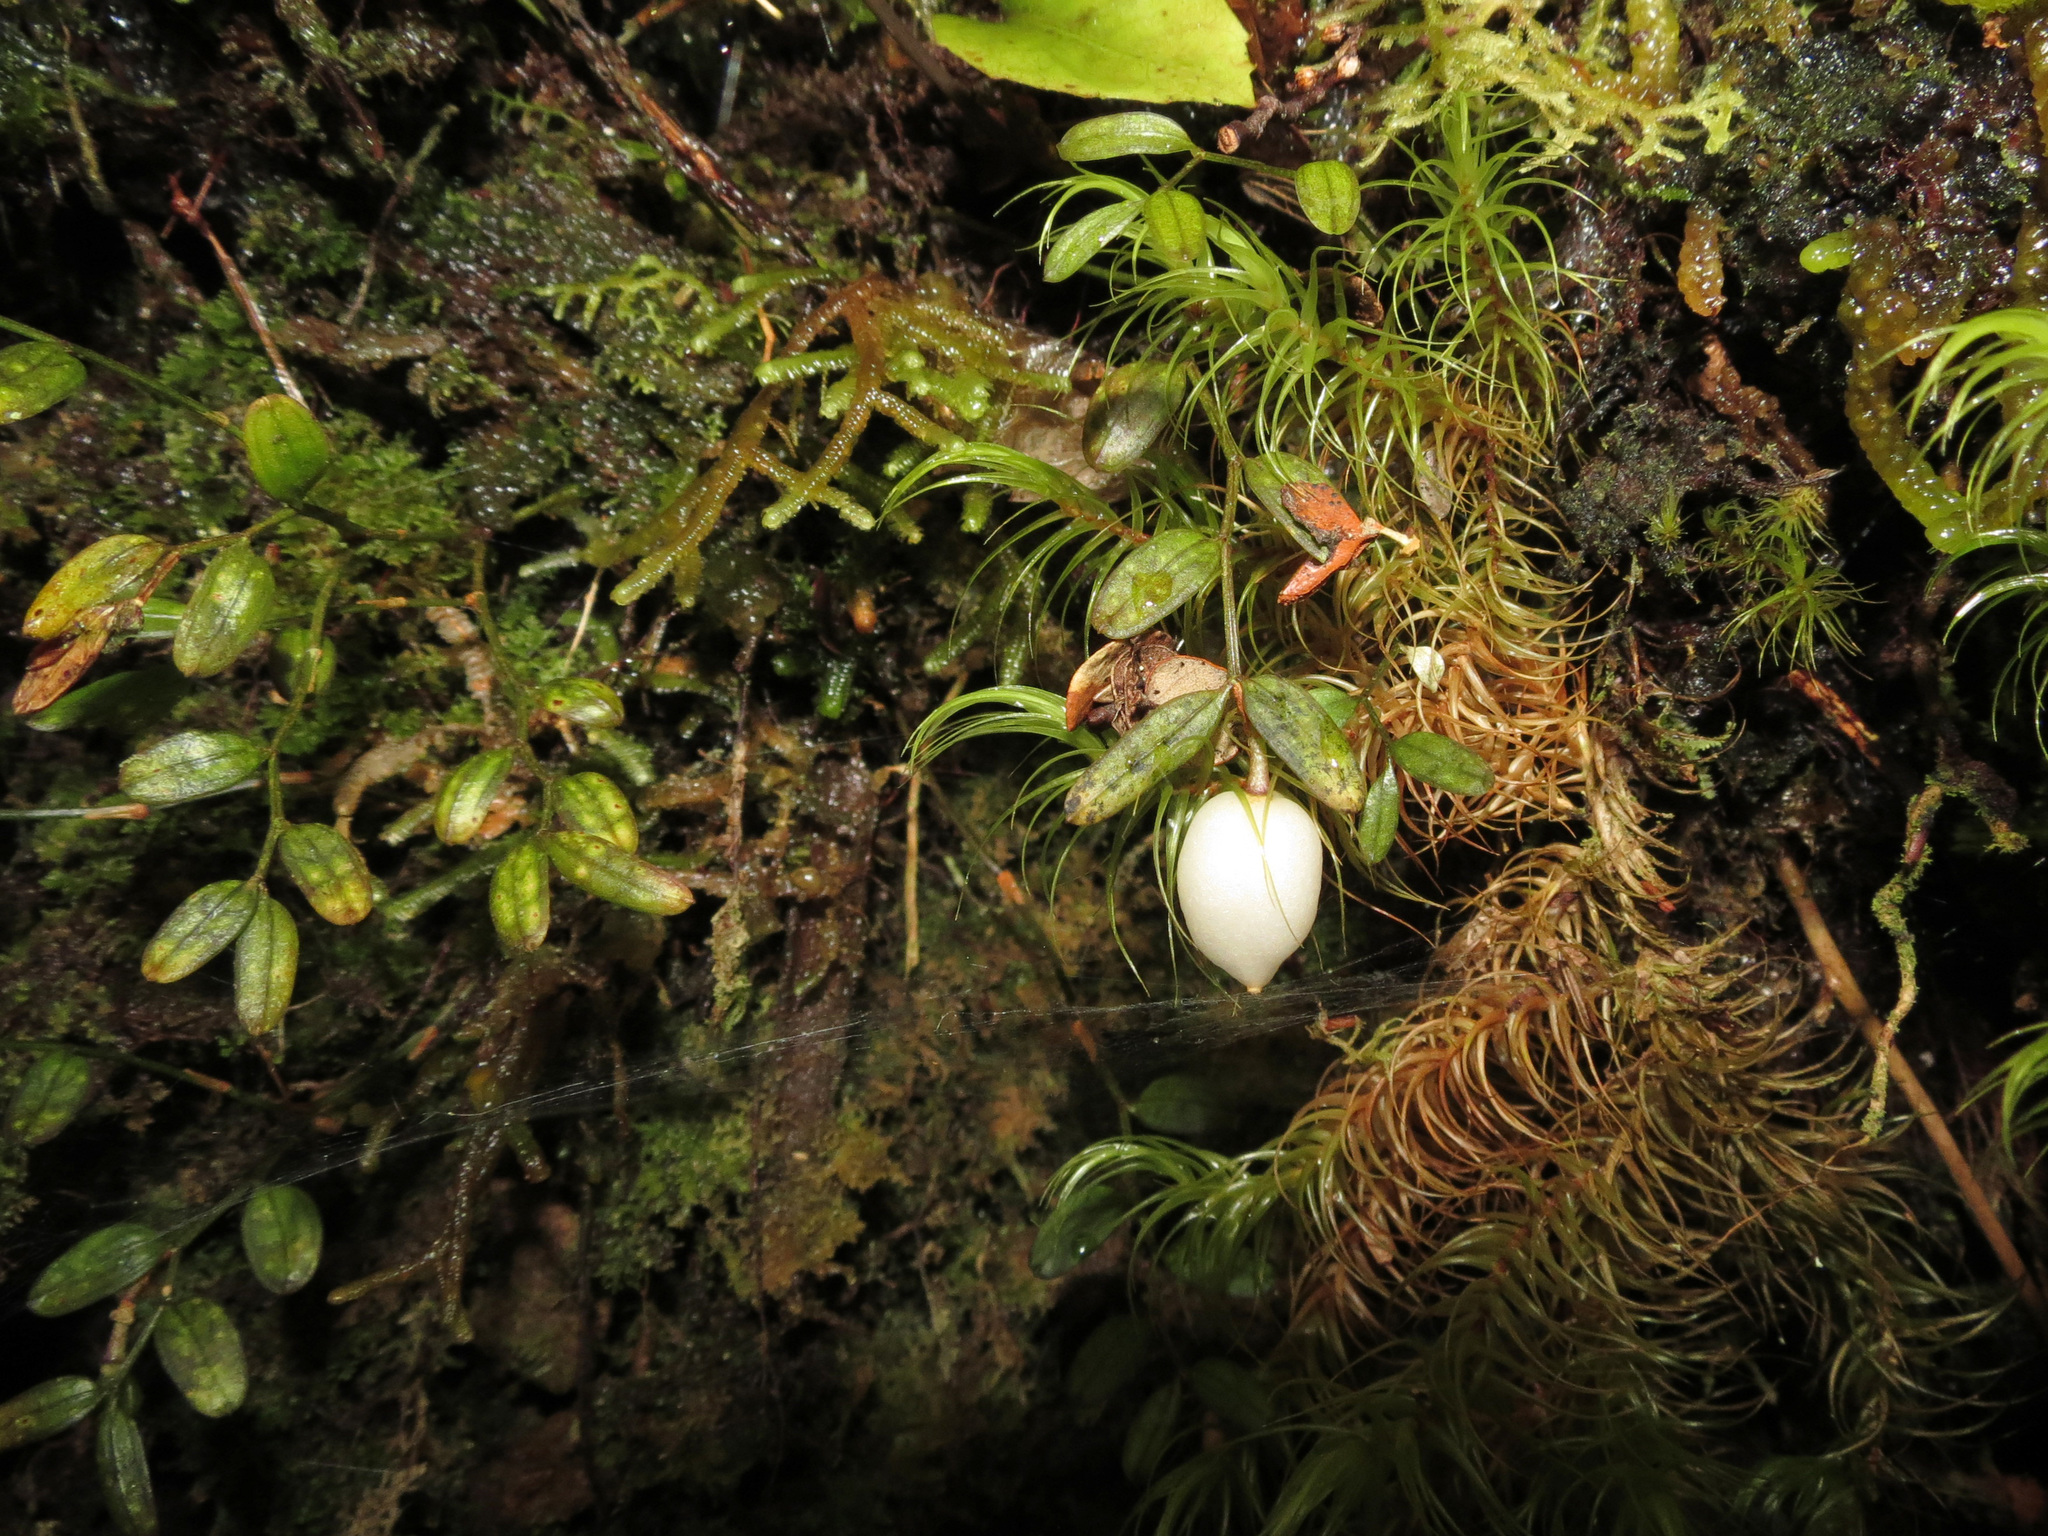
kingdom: Plantae
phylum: Tracheophyta
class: Liliopsida
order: Liliales
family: Alstroemeriaceae
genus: Luzuriaga
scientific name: Luzuriaga parviflora
